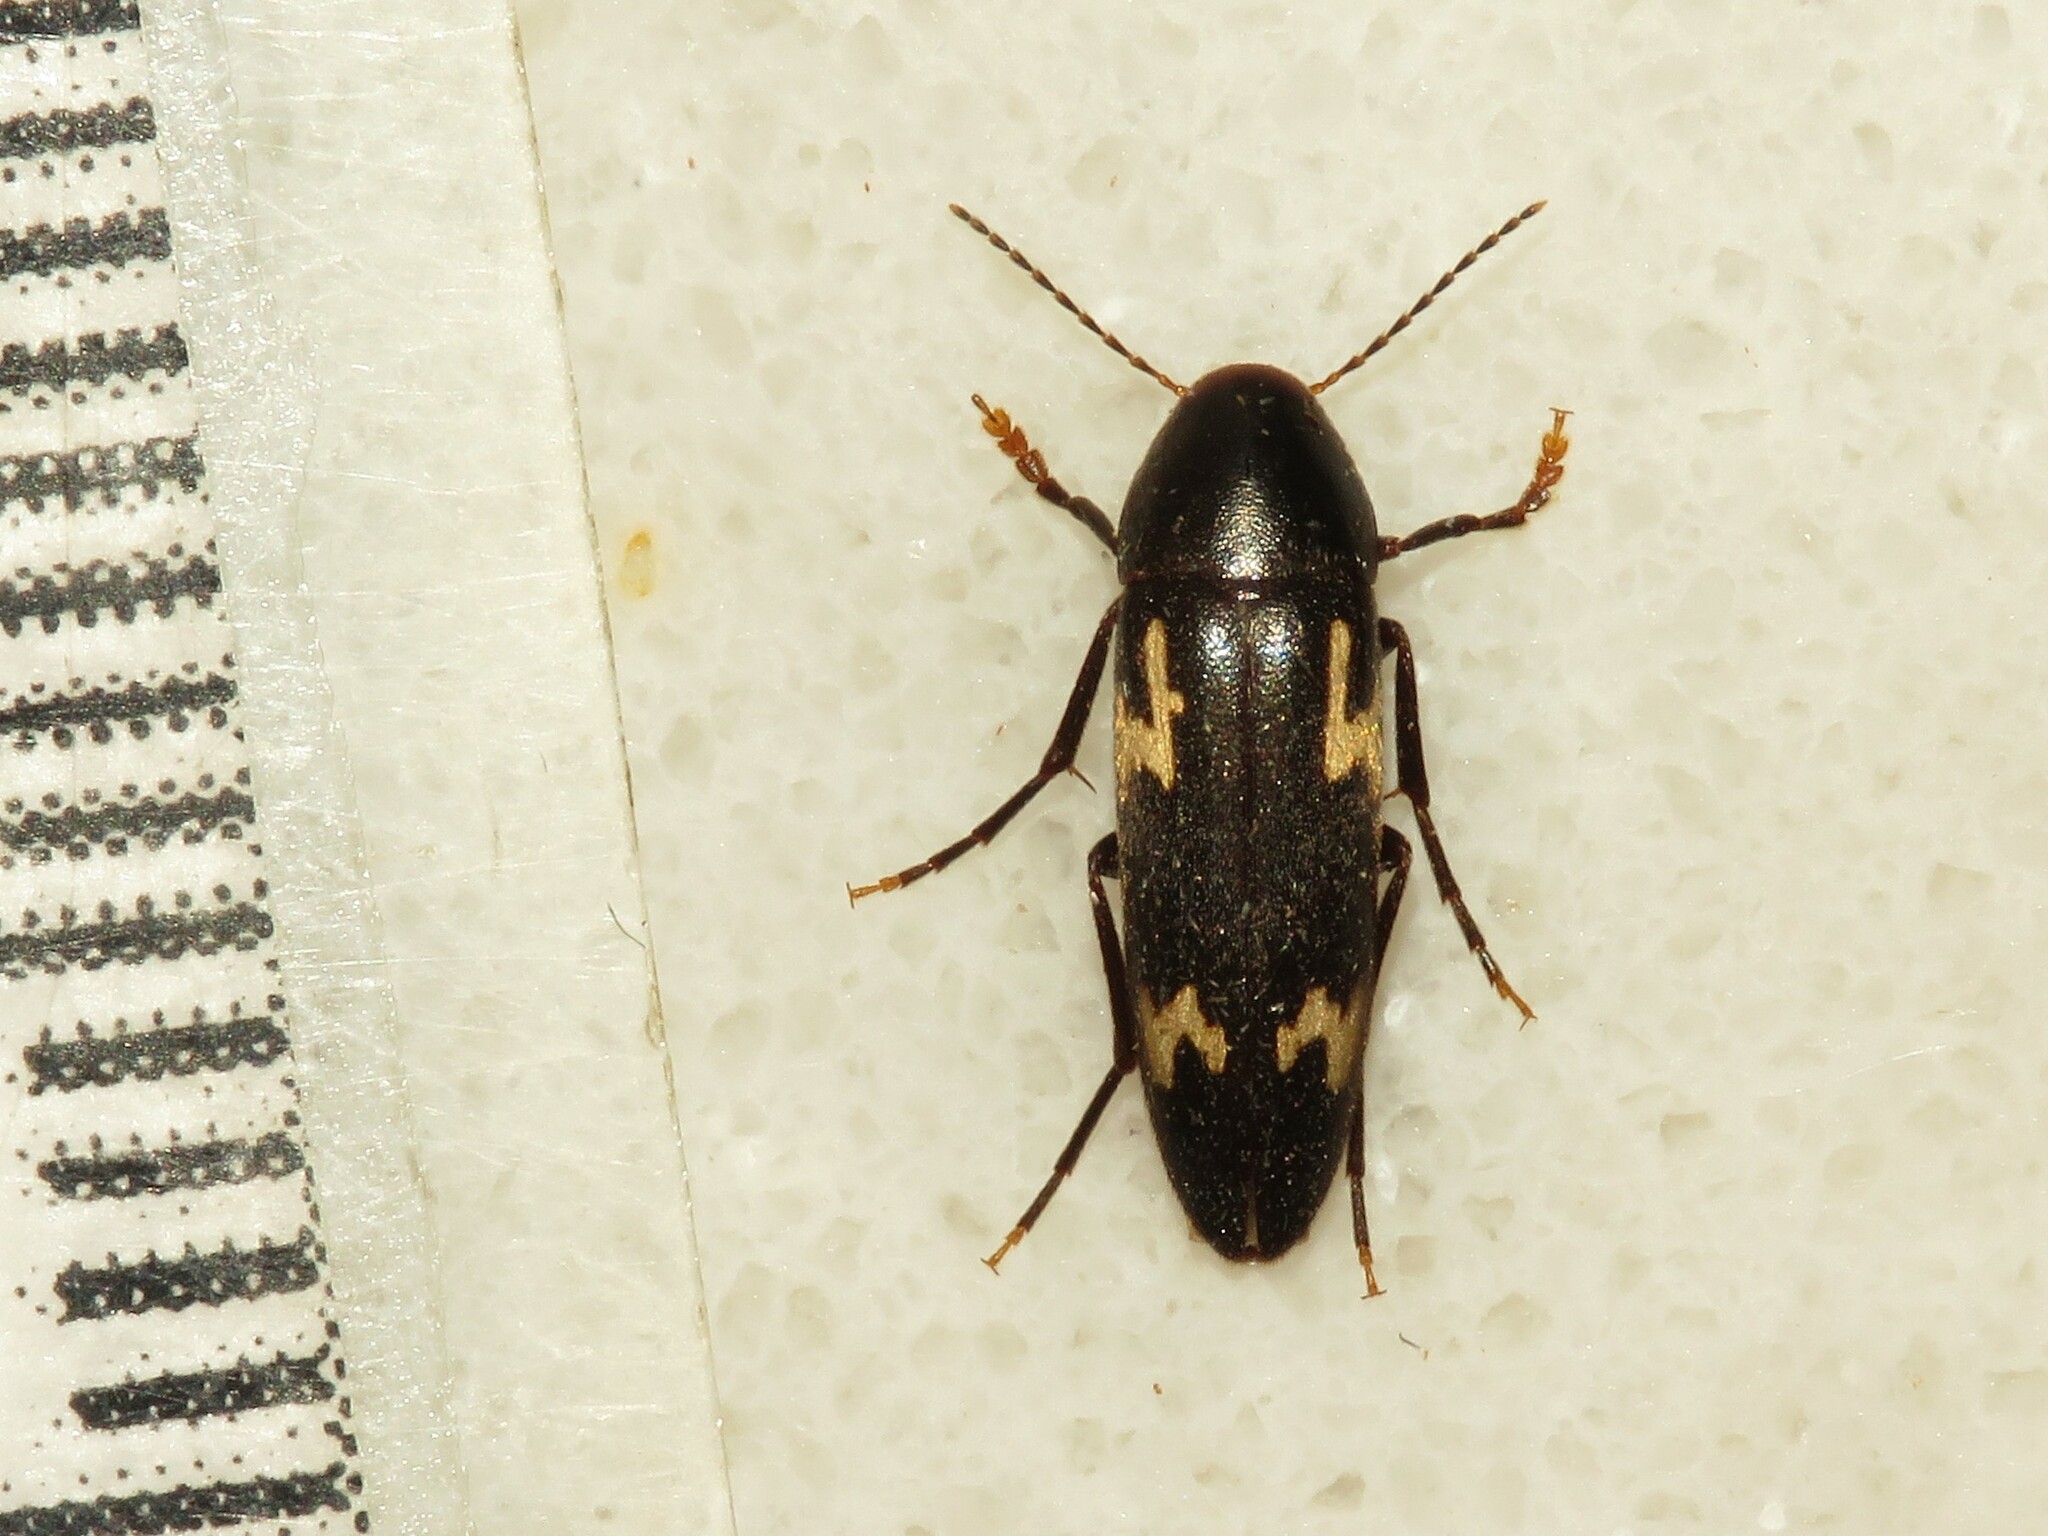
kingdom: Animalia
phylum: Arthropoda
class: Insecta
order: Coleoptera
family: Melandryidae
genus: Dircaea
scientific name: Dircaea liturata
